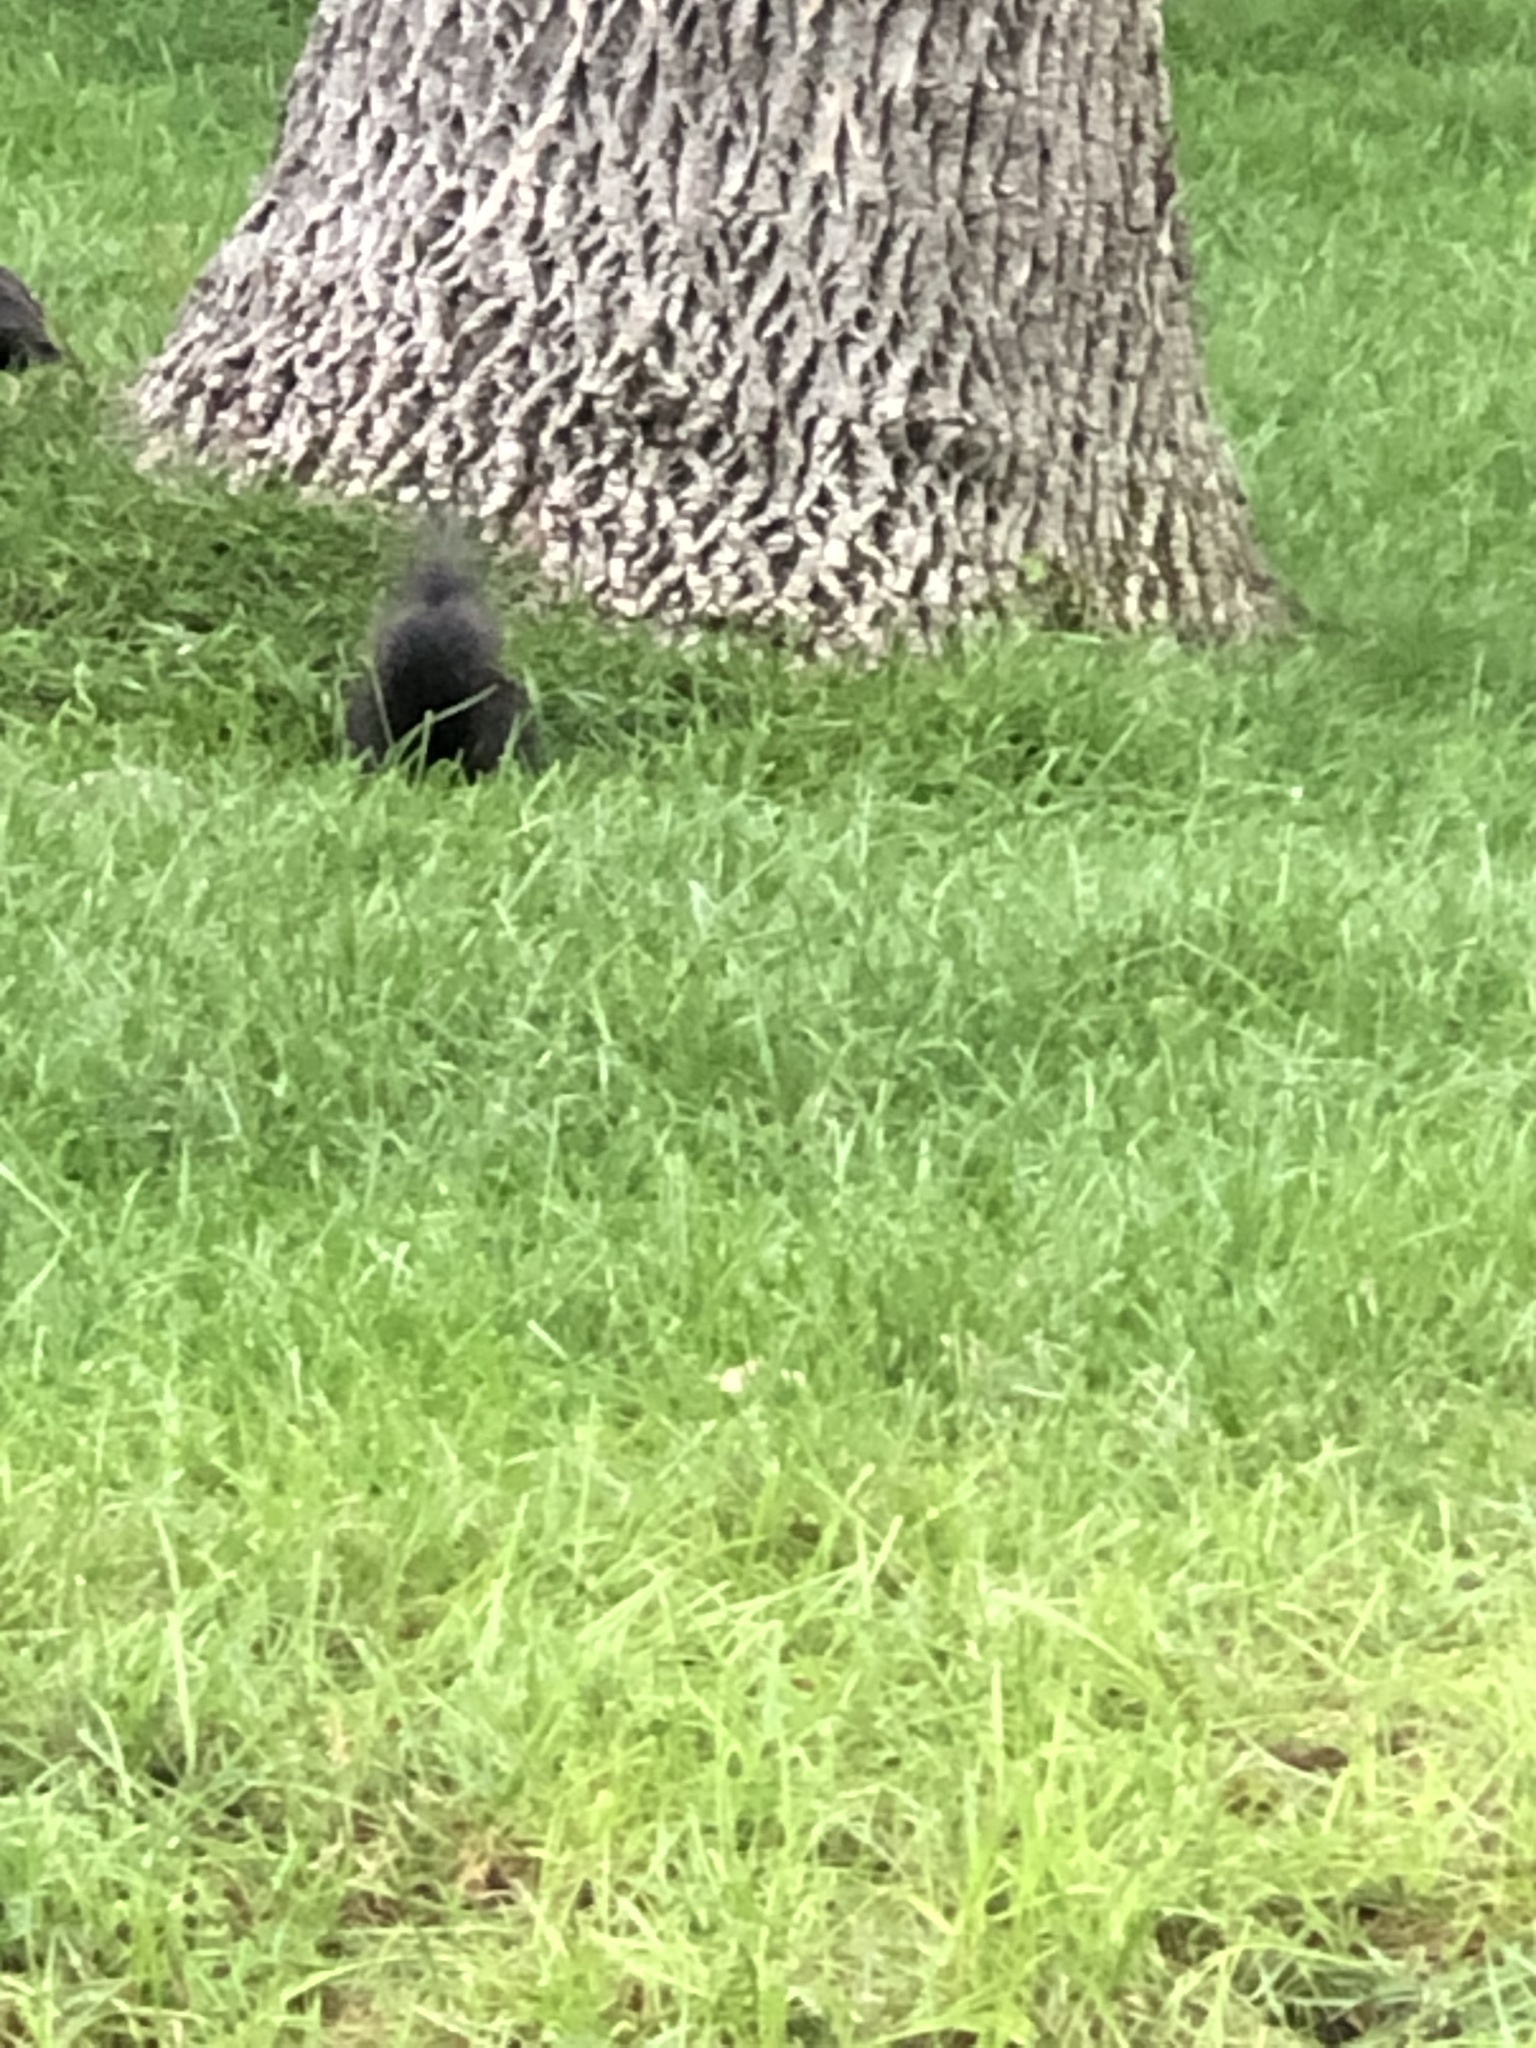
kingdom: Animalia
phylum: Chordata
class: Mammalia
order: Rodentia
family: Sciuridae
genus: Sciurus
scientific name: Sciurus carolinensis
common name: Eastern gray squirrel
